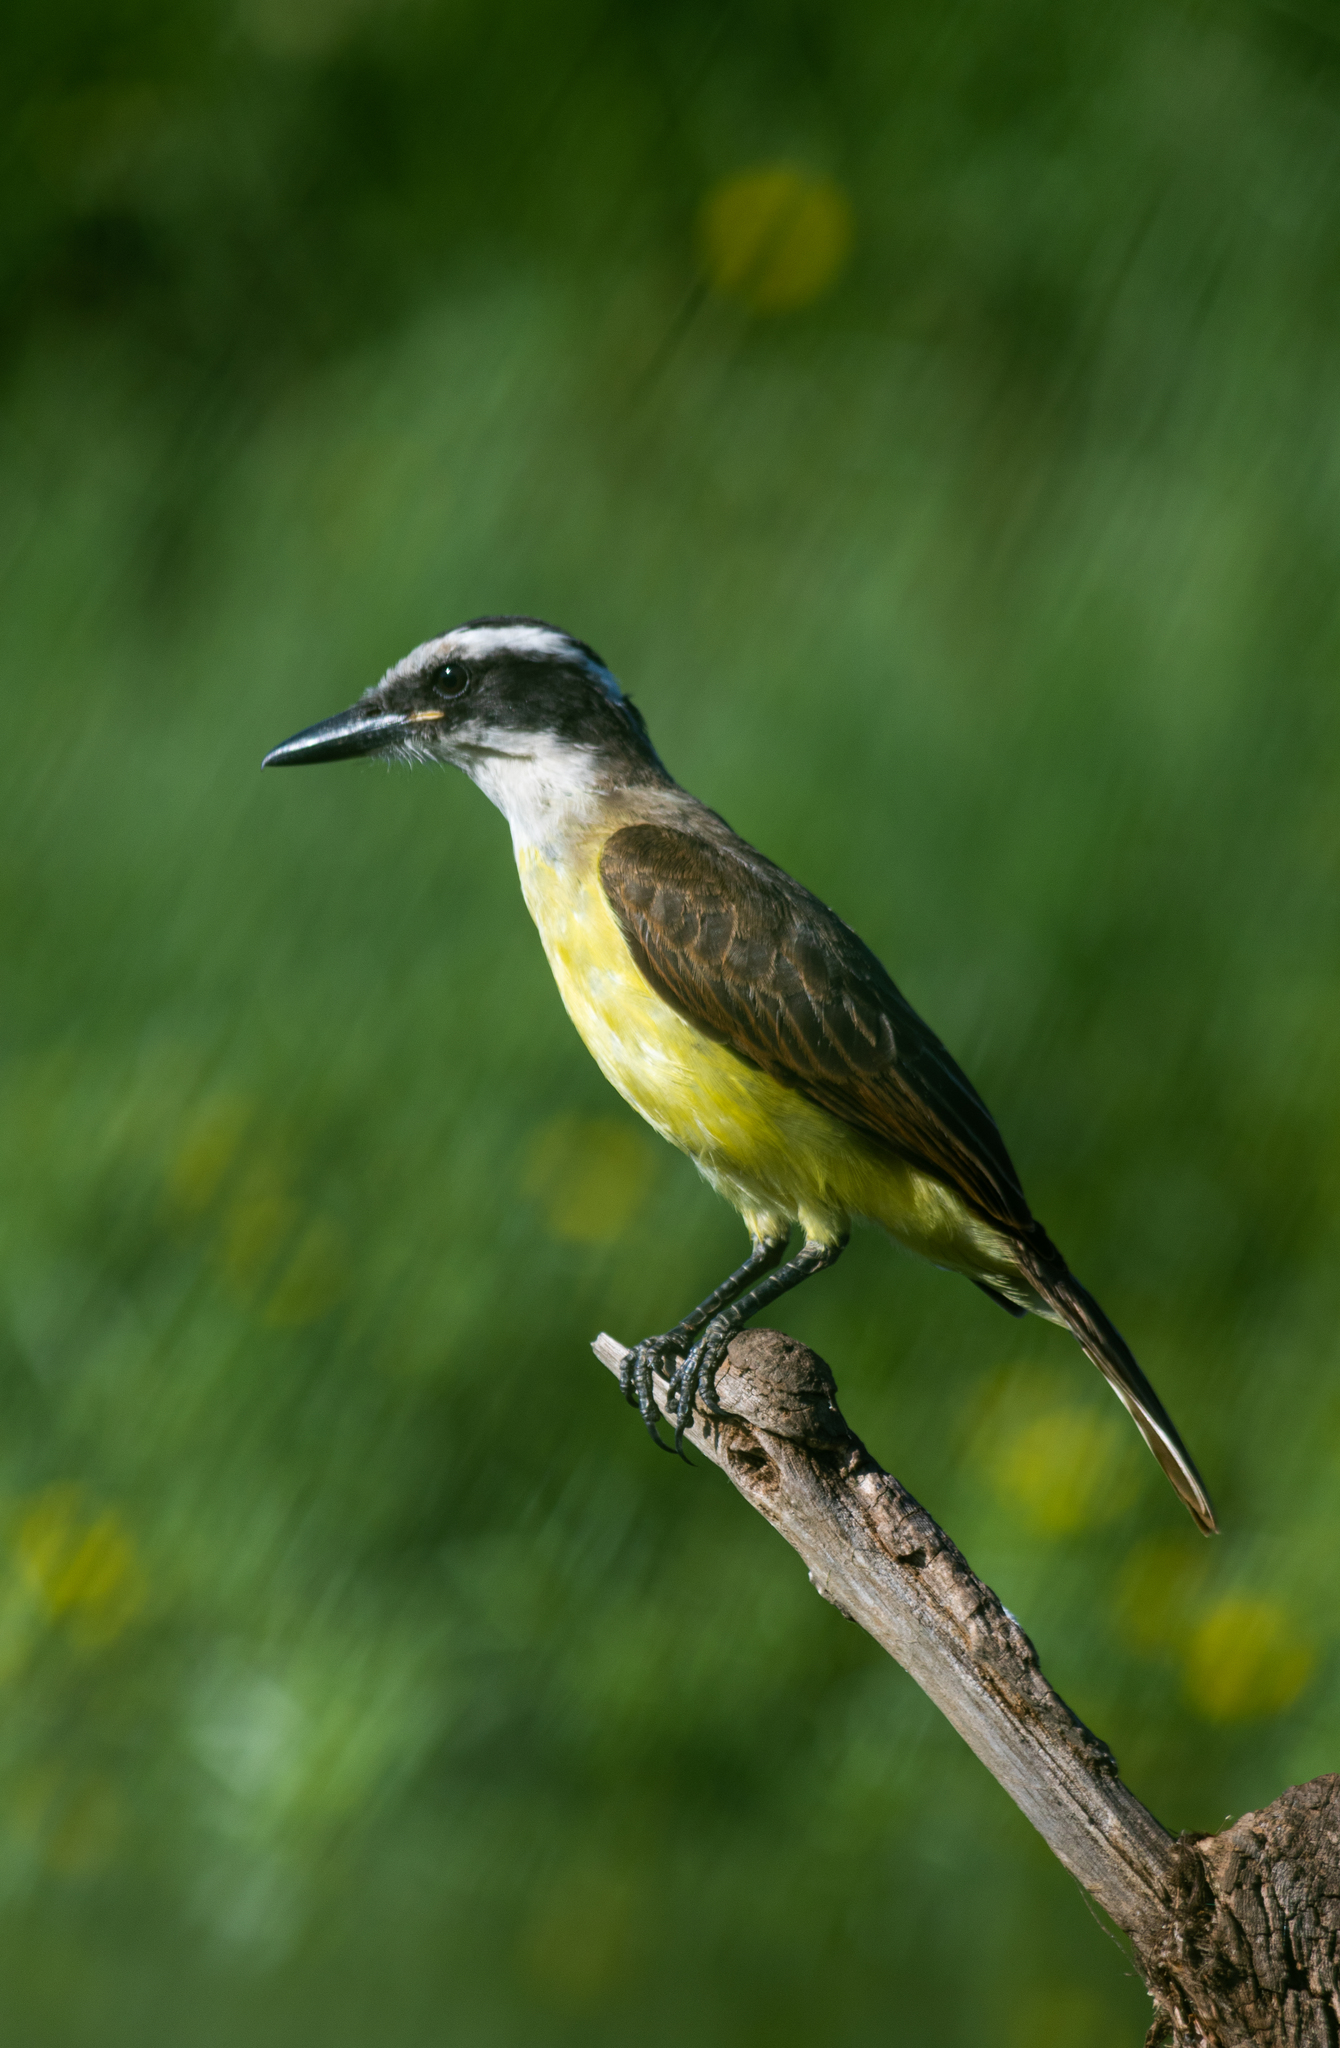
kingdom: Animalia
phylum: Chordata
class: Aves
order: Passeriformes
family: Tyrannidae
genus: Pitangus
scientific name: Pitangus sulphuratus
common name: Great kiskadee
